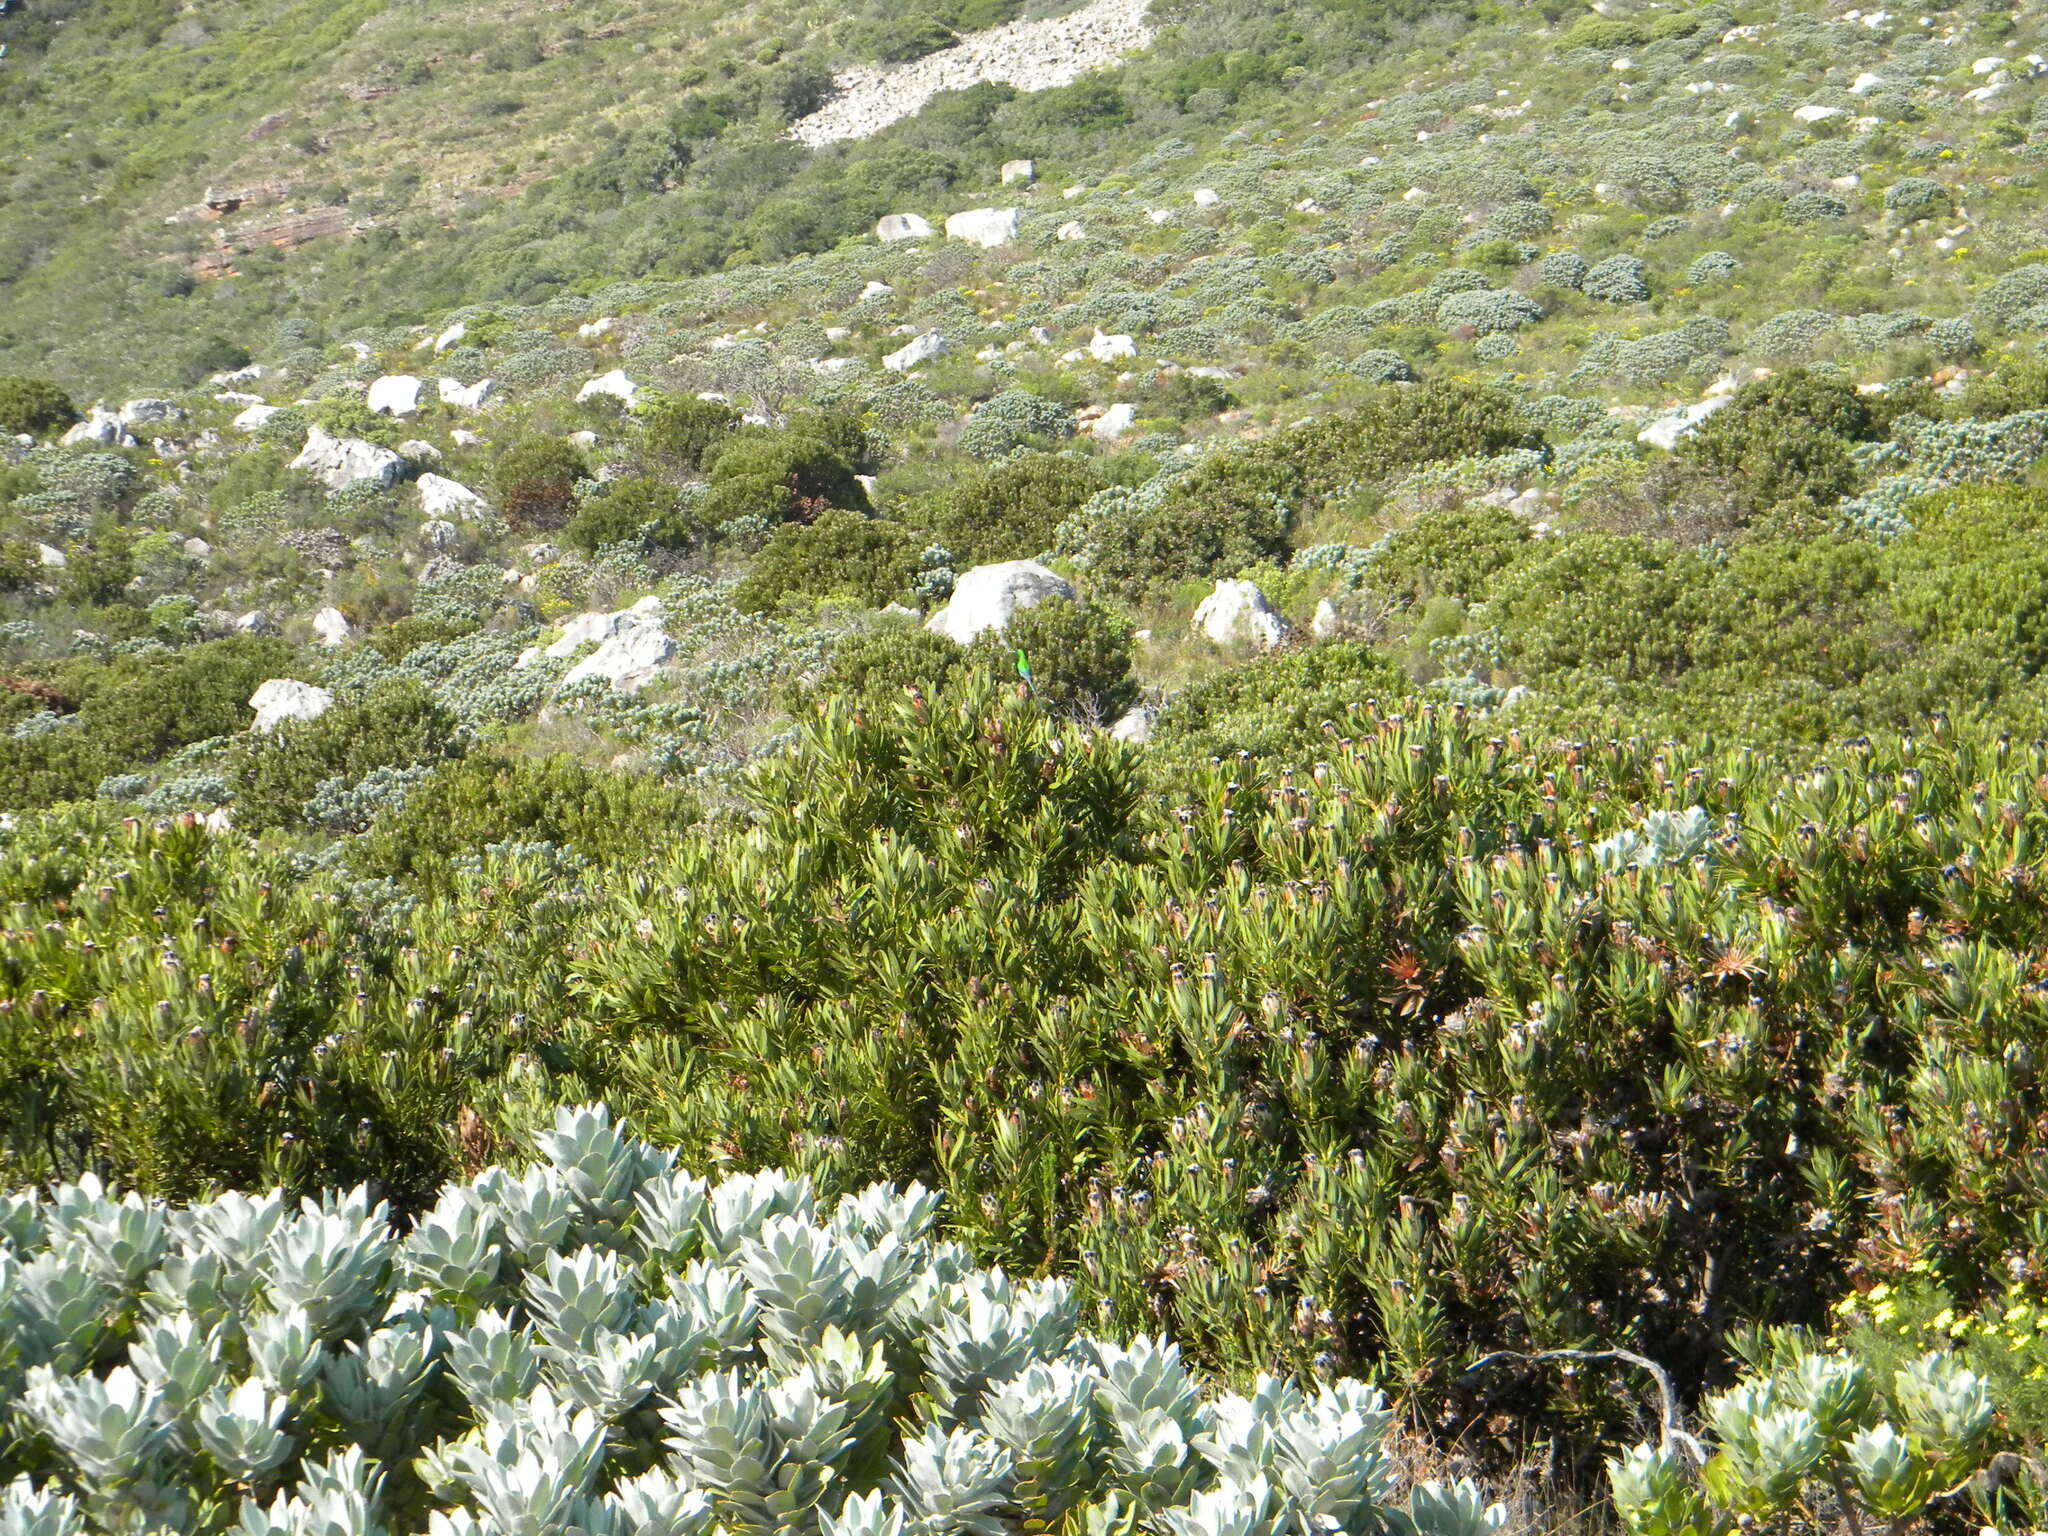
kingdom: Animalia
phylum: Chordata
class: Aves
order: Passeriformes
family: Nectariniidae
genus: Nectarinia
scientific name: Nectarinia famosa
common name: Malachite sunbird
